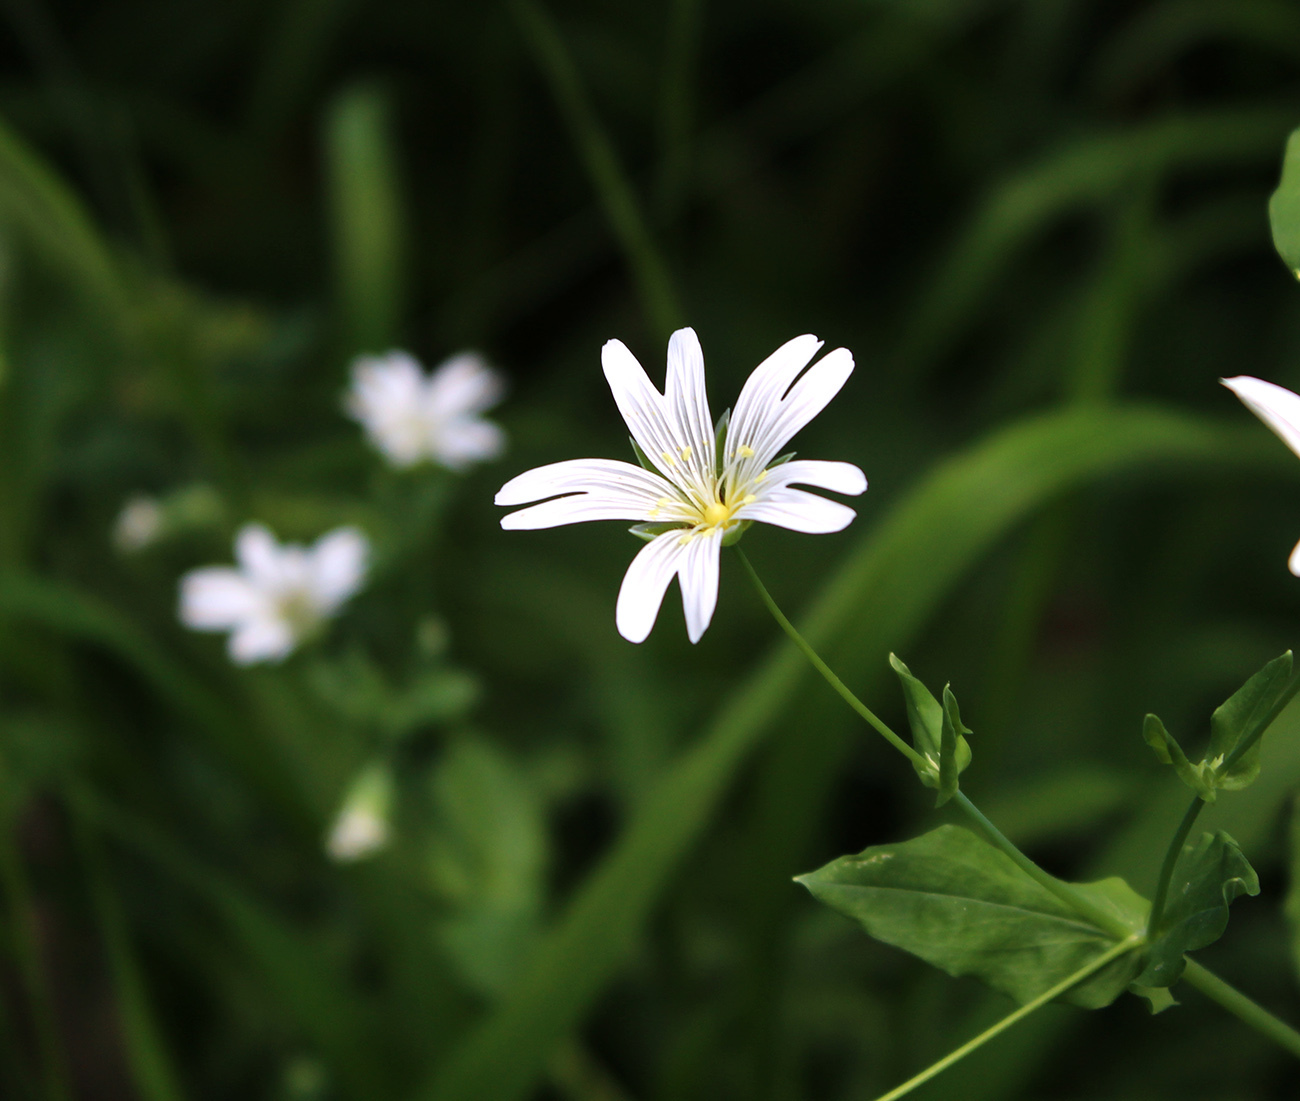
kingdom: Plantae
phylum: Tracheophyta
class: Magnoliopsida
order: Caryophyllales
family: Caryophyllaceae
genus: Cerastium
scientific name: Cerastium davuricum
